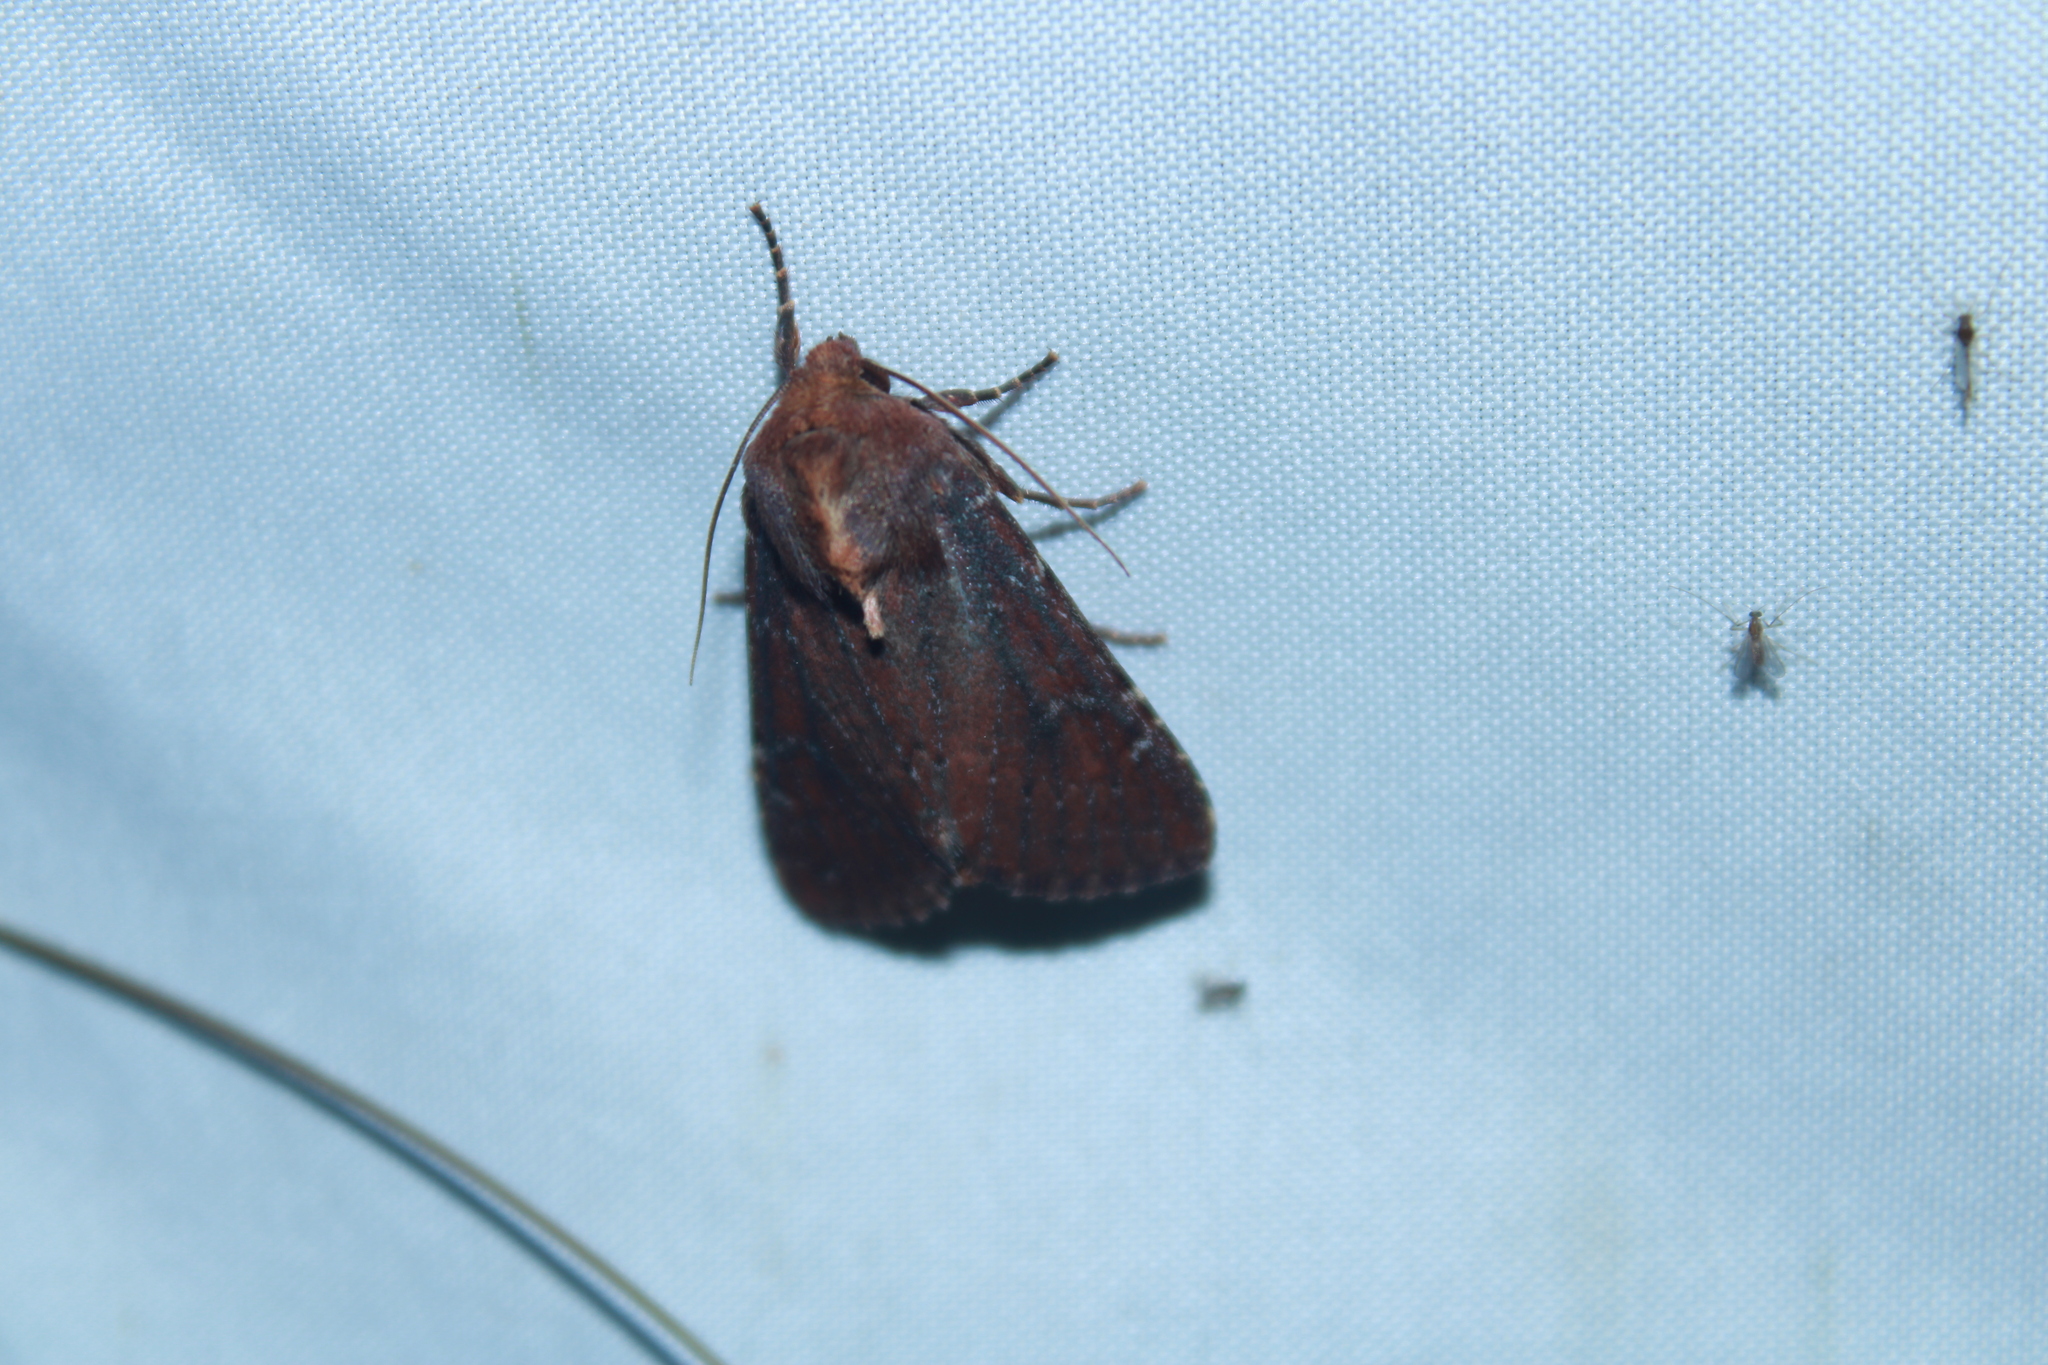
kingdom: Animalia
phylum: Arthropoda
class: Insecta
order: Lepidoptera
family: Noctuidae
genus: Sideridis
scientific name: Sideridis maryx
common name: Maroonwing moth
